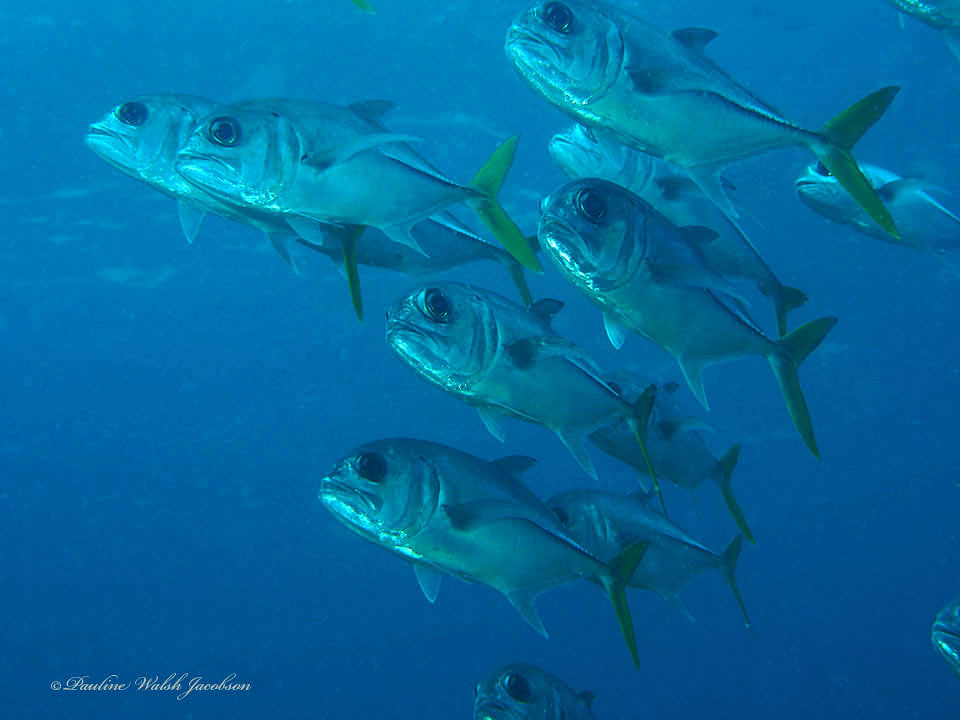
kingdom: Animalia
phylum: Chordata
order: Perciformes
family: Carangidae
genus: Caranx
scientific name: Caranx latus
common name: Horse eye jack
